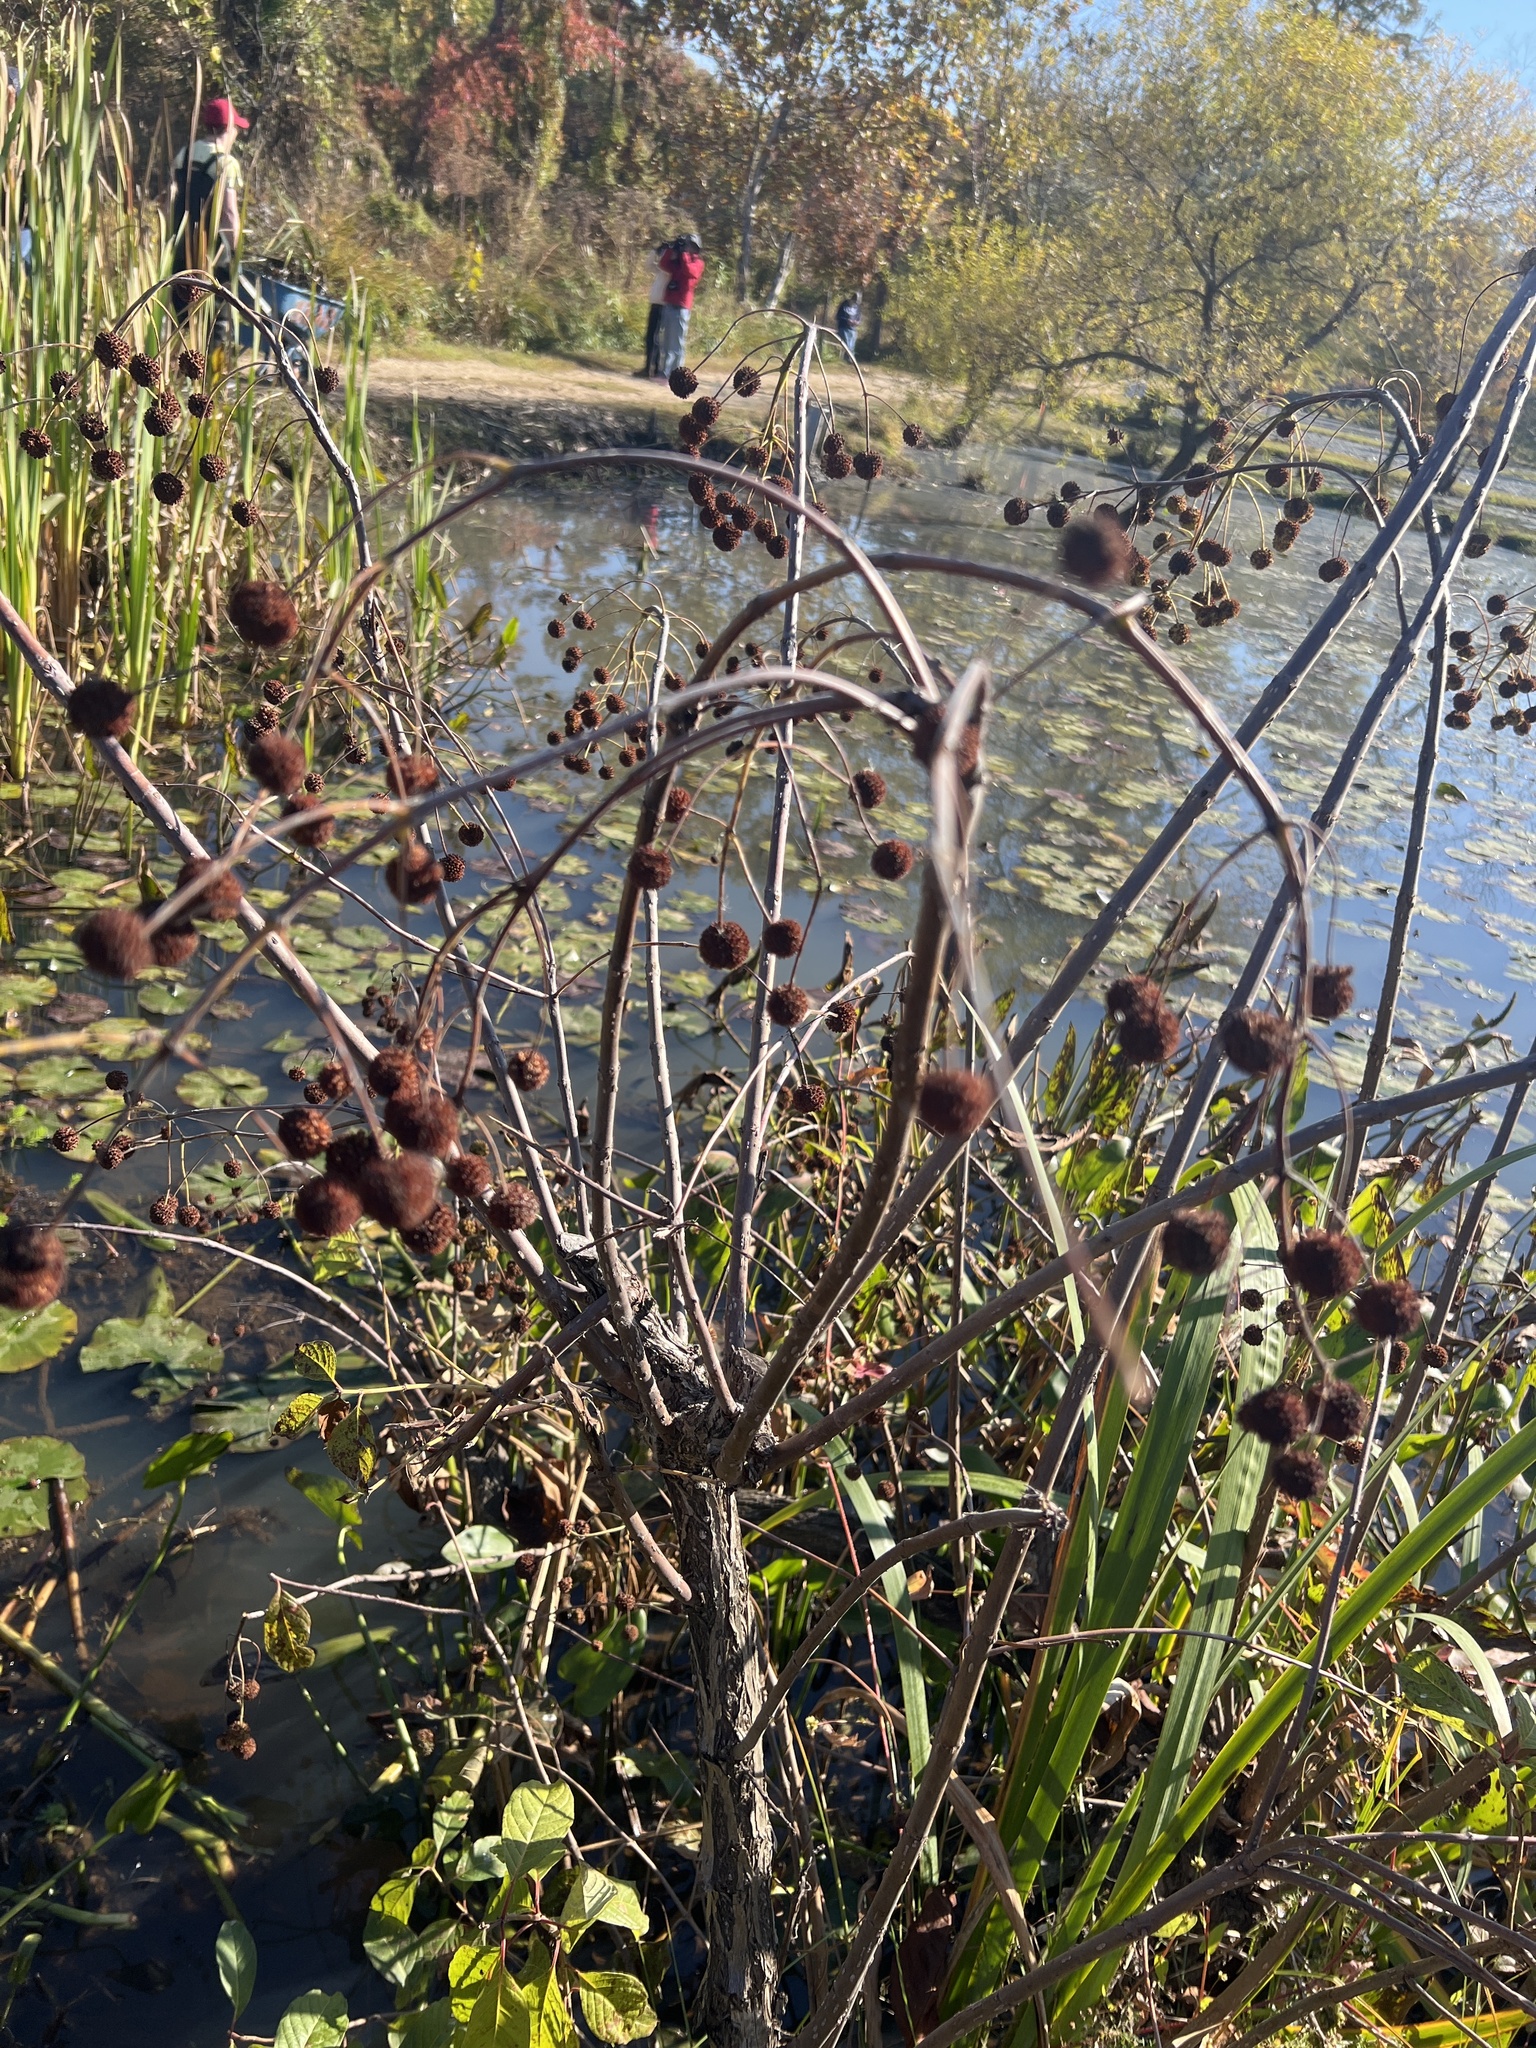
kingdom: Plantae
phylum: Tracheophyta
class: Magnoliopsida
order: Gentianales
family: Rubiaceae
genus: Cephalanthus
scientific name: Cephalanthus occidentalis
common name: Button-willow
